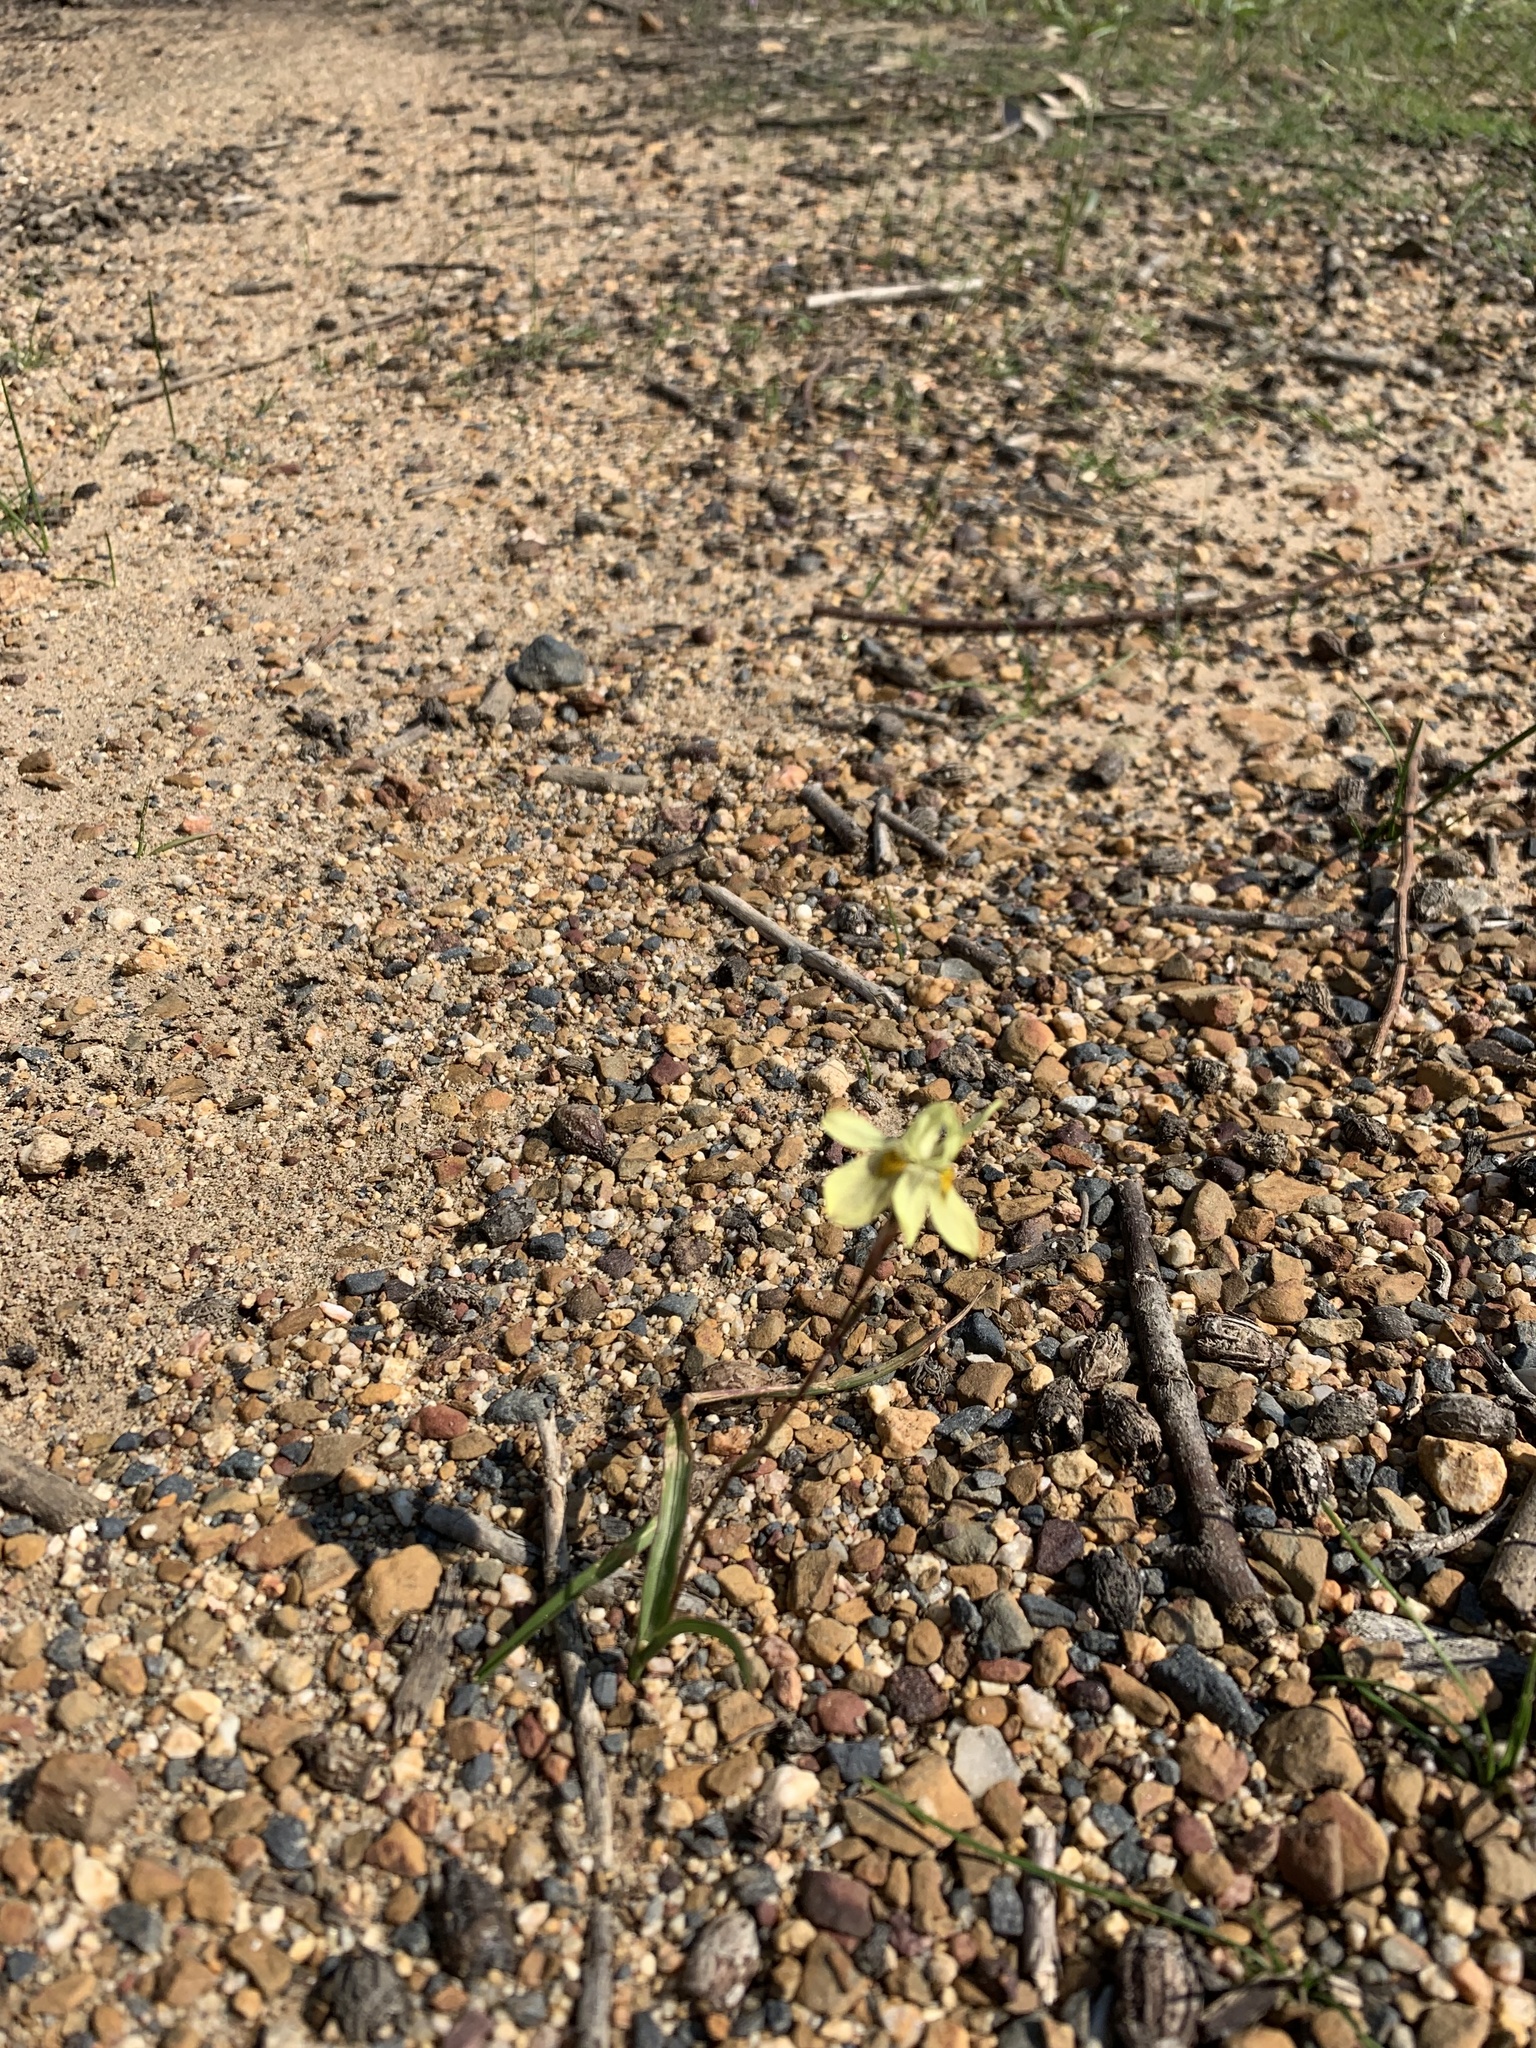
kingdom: Plantae
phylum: Tracheophyta
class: Liliopsida
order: Asparagales
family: Iridaceae
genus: Moraea
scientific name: Moraea gawleri
